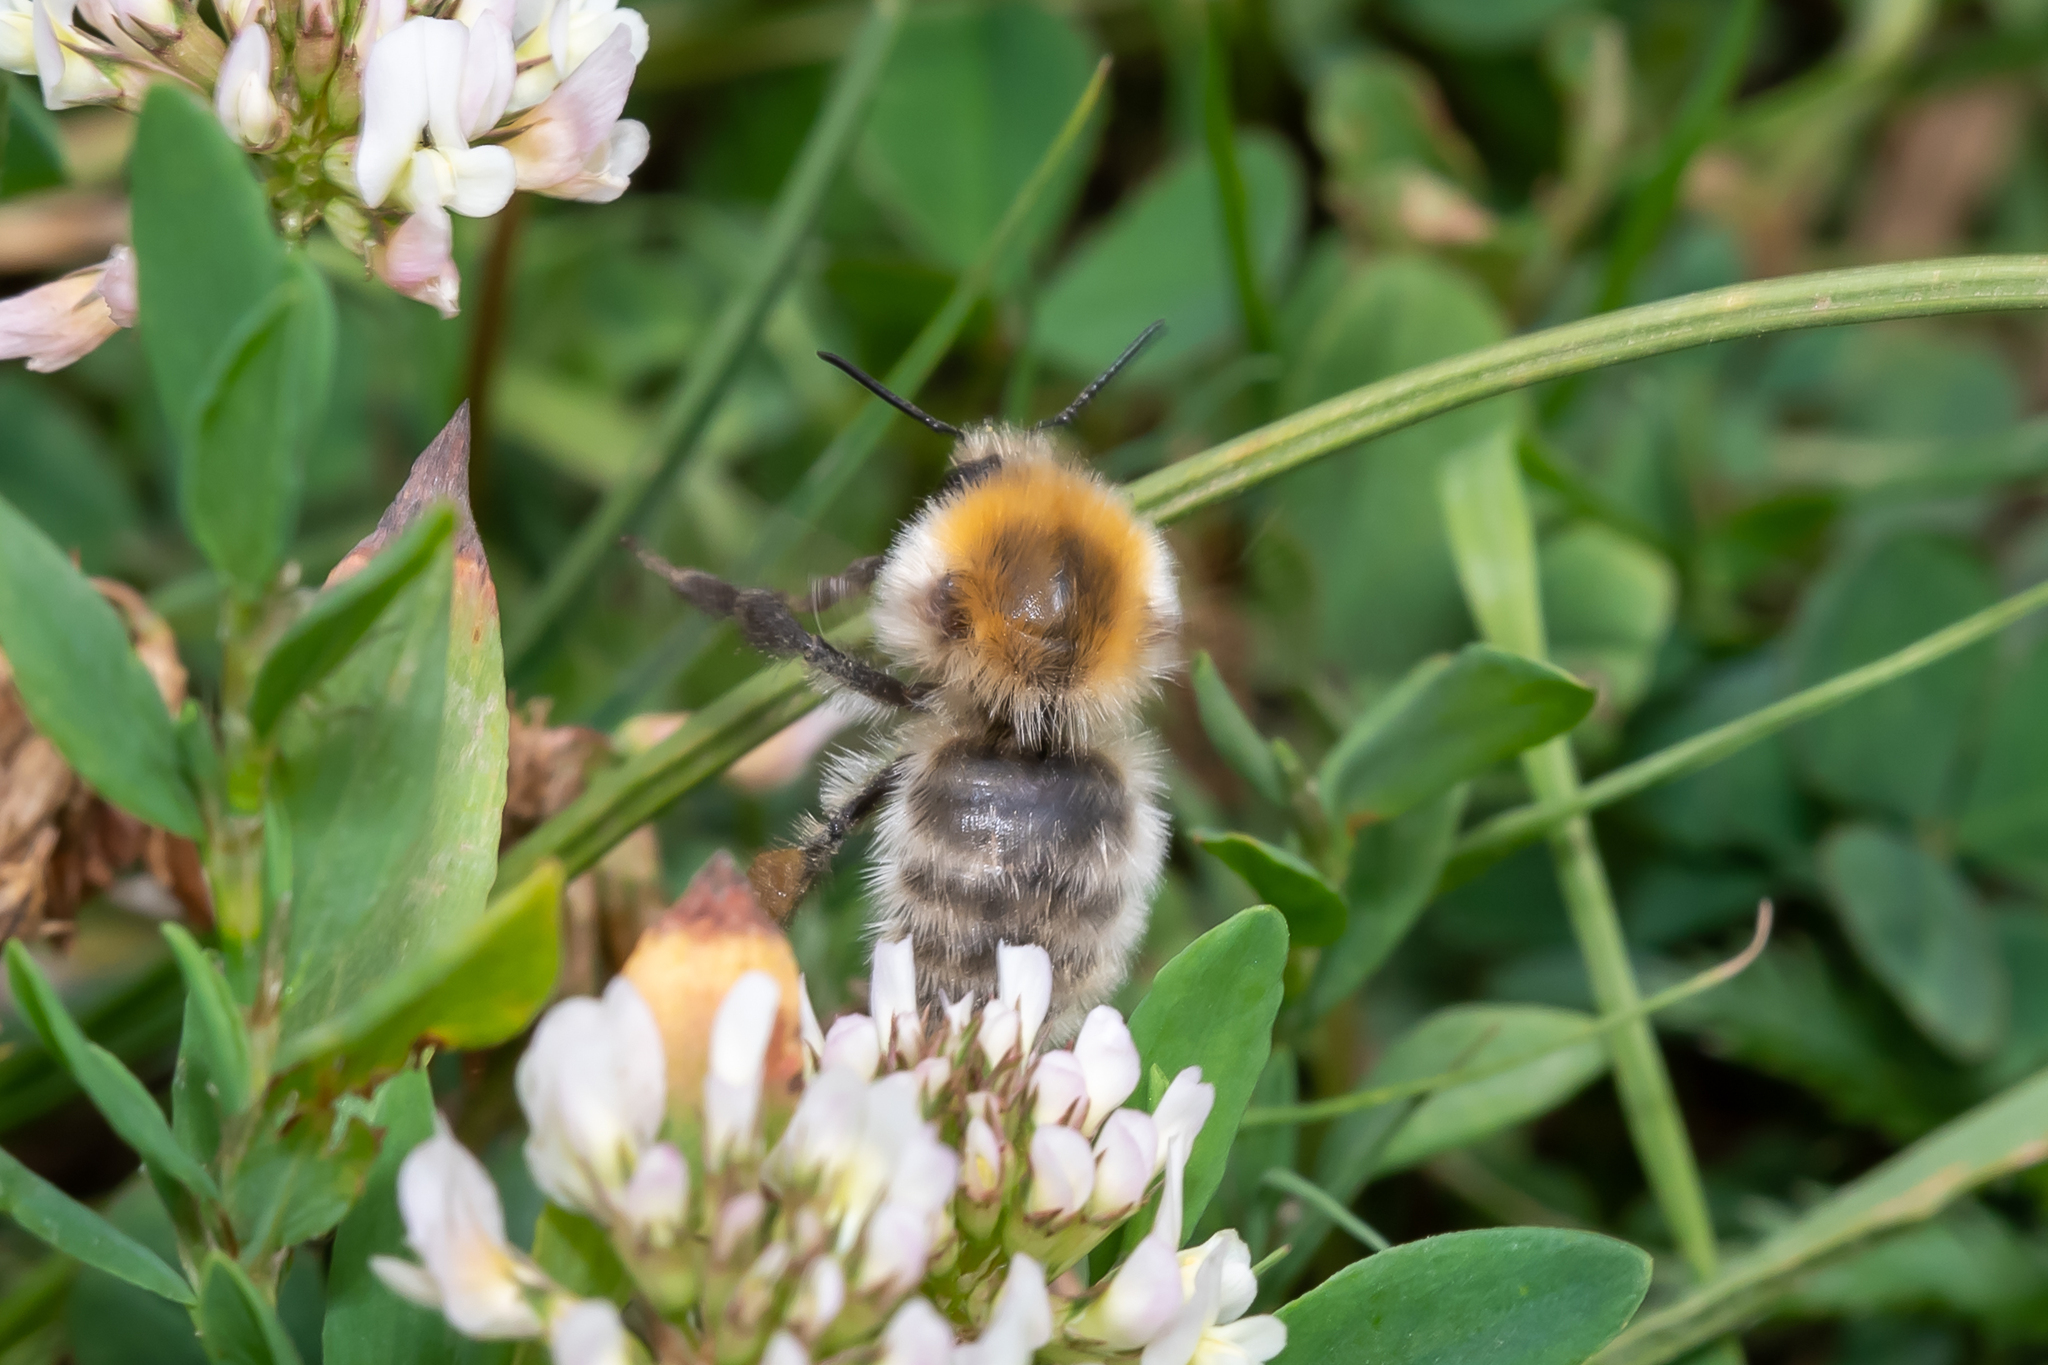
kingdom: Animalia
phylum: Arthropoda
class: Insecta
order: Hymenoptera
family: Apidae
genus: Bombus
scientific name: Bombus muscorum
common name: Moss carder-bee
